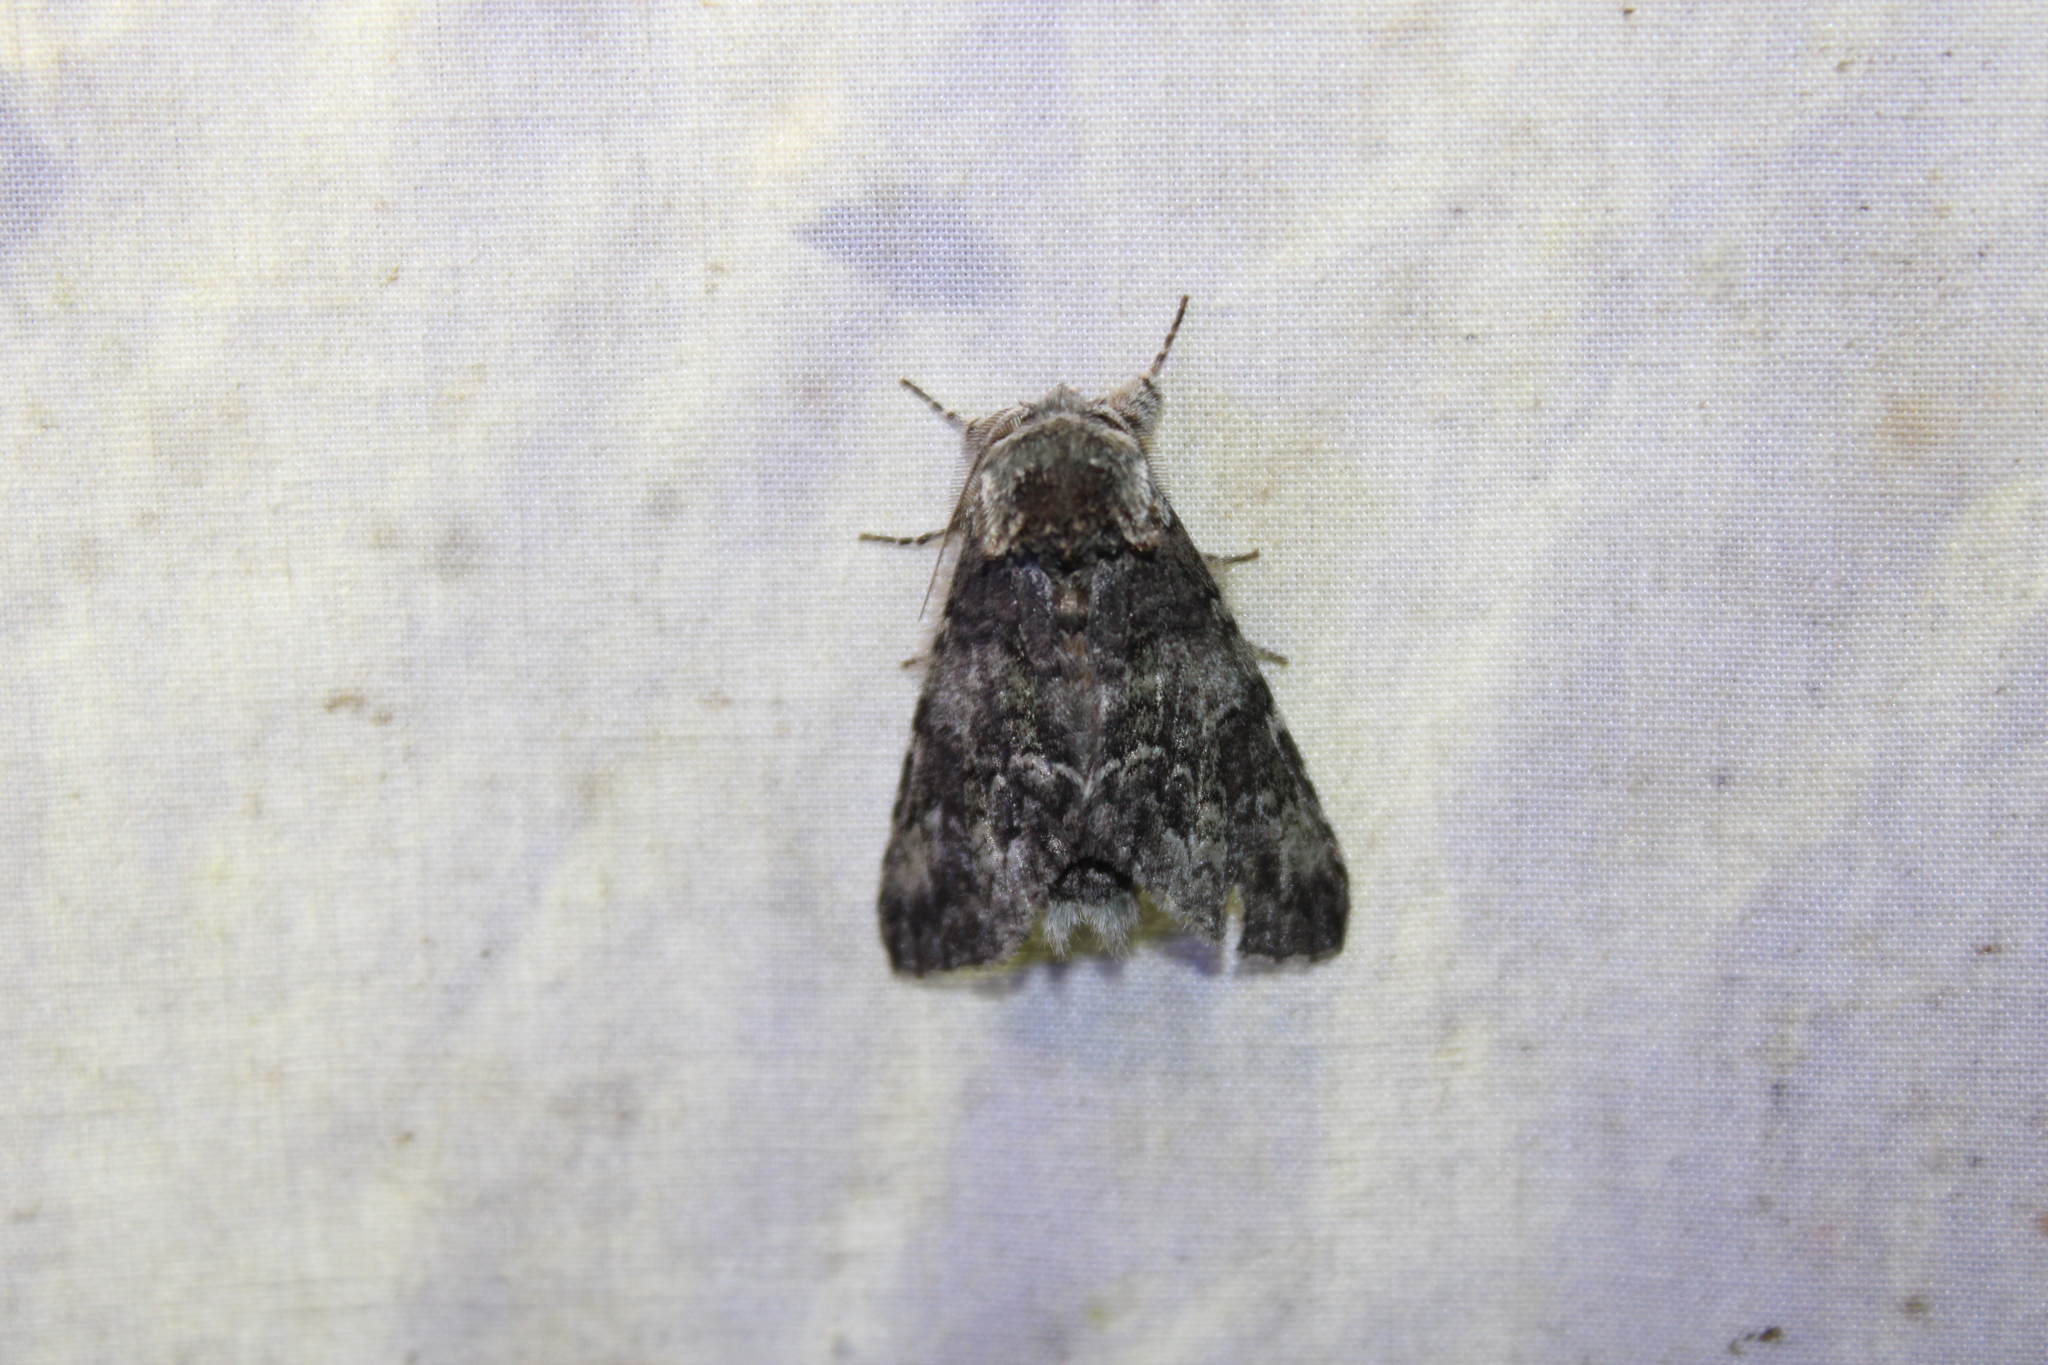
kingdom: Animalia
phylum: Arthropoda
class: Insecta
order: Lepidoptera
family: Notodontidae
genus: Macrurocampa
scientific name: Macrurocampa marthesia
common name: Mottled prominent
